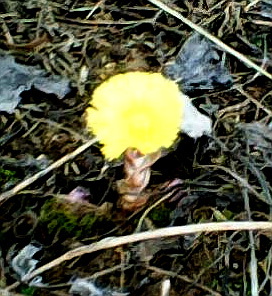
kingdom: Plantae
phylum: Tracheophyta
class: Magnoliopsida
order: Asterales
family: Asteraceae
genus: Tussilago
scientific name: Tussilago farfara
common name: Coltsfoot
